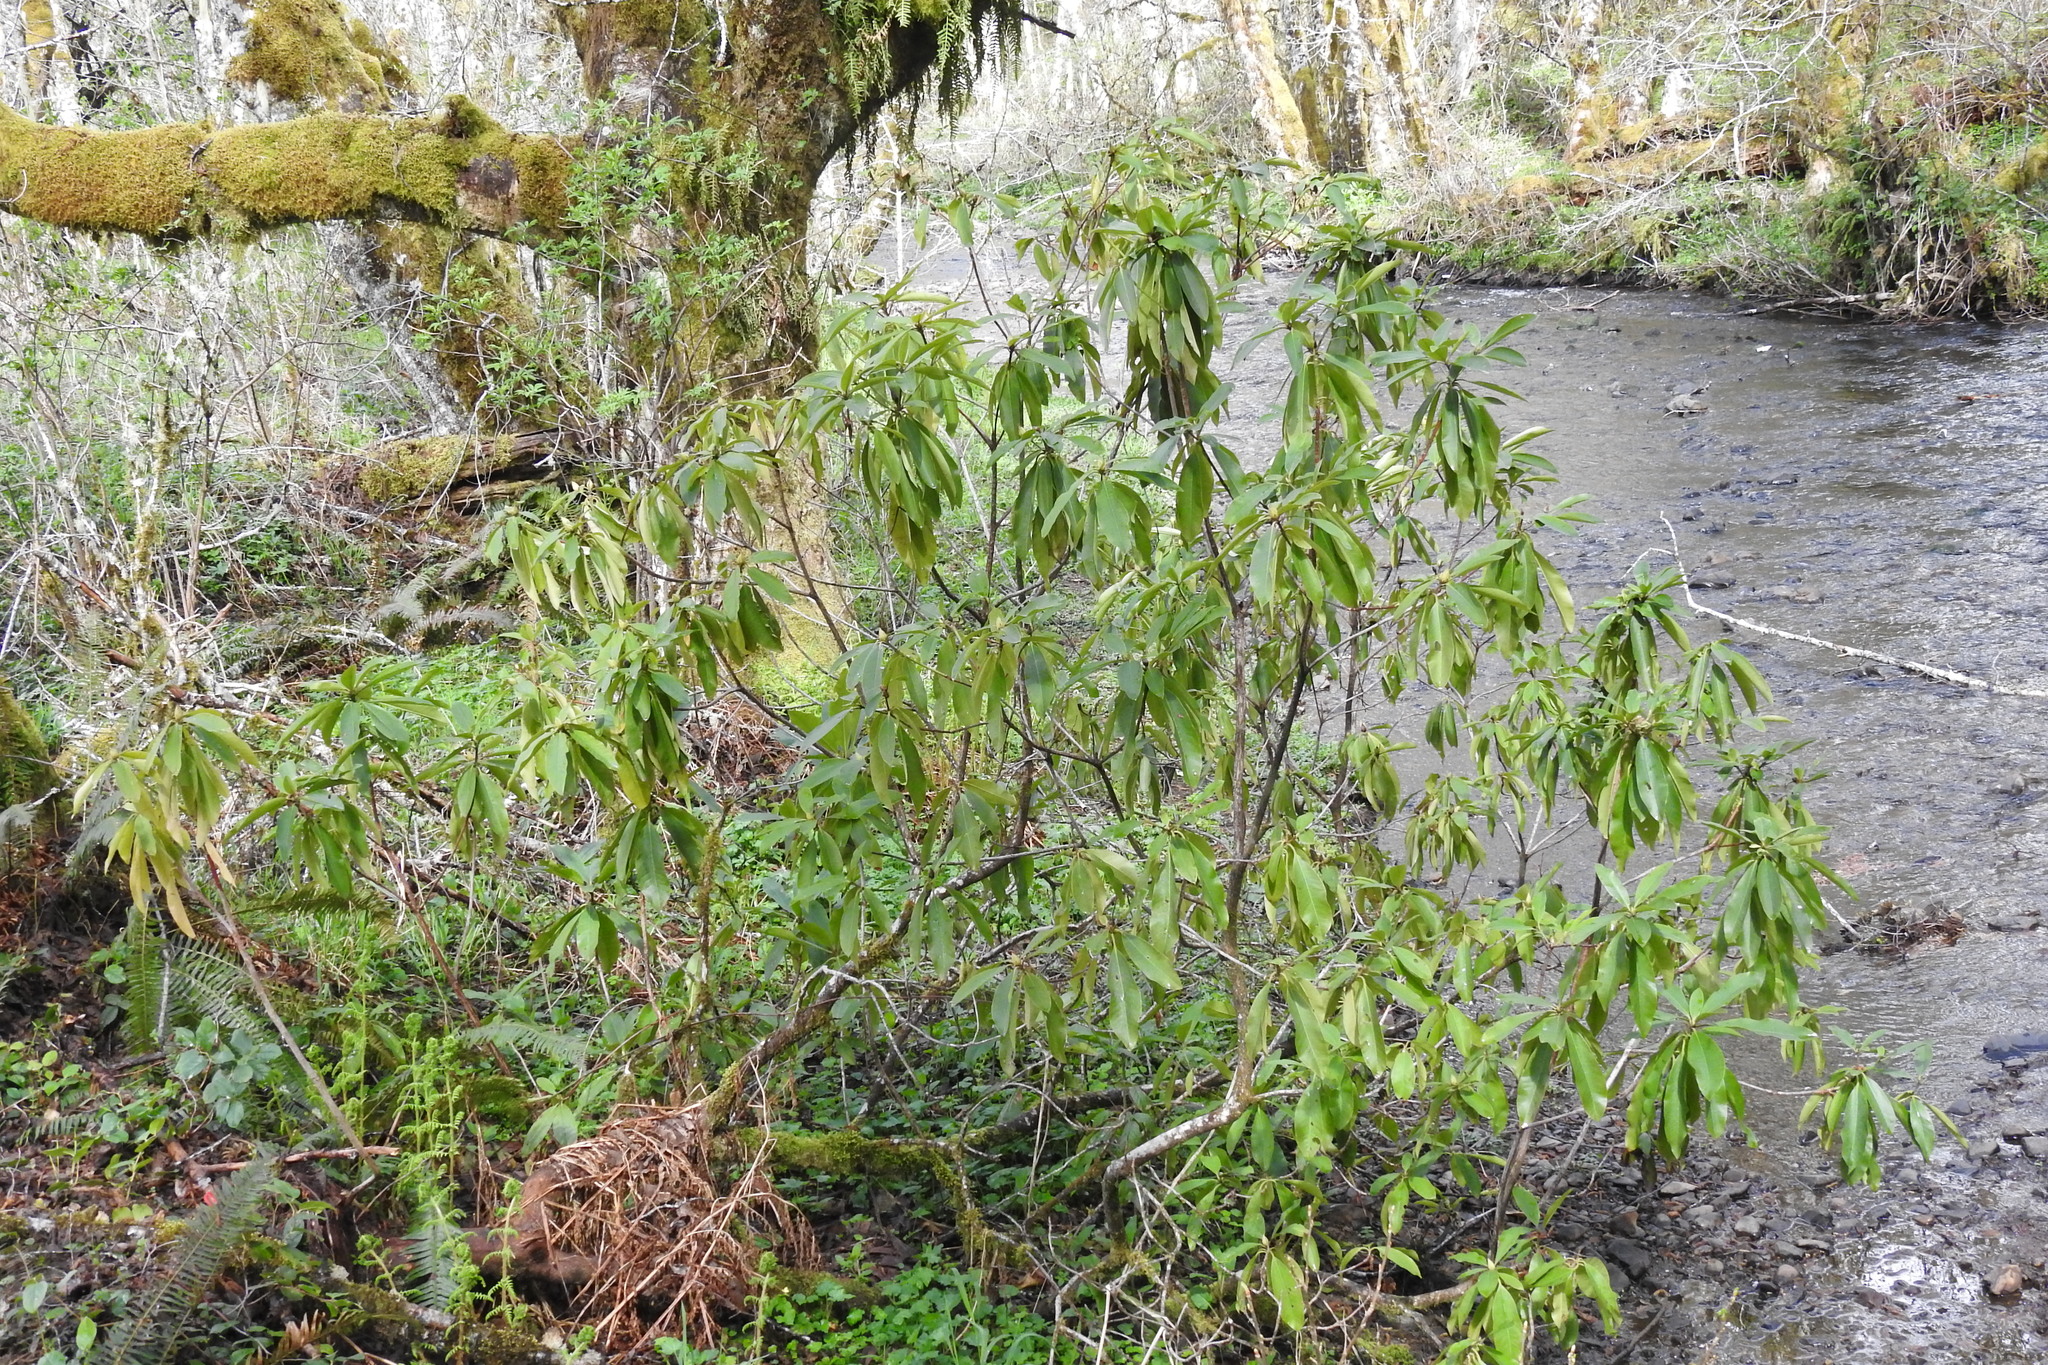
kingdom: Plantae
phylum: Tracheophyta
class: Magnoliopsida
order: Ericales
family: Ericaceae
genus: Rhododendron
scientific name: Rhododendron macrophyllum
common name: California rose bay
